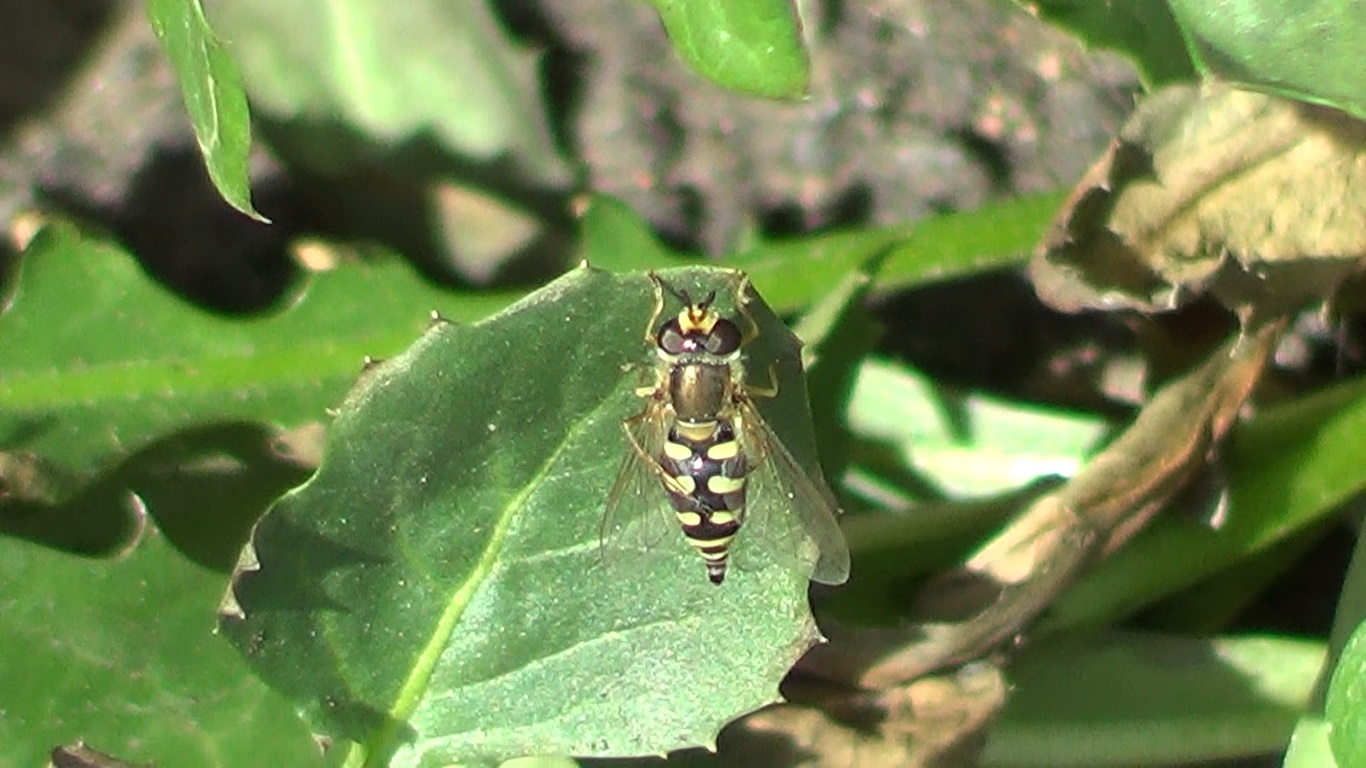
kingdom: Animalia
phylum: Arthropoda
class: Insecta
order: Diptera
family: Syrphidae
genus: Eupeodes
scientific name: Eupeodes corollae
